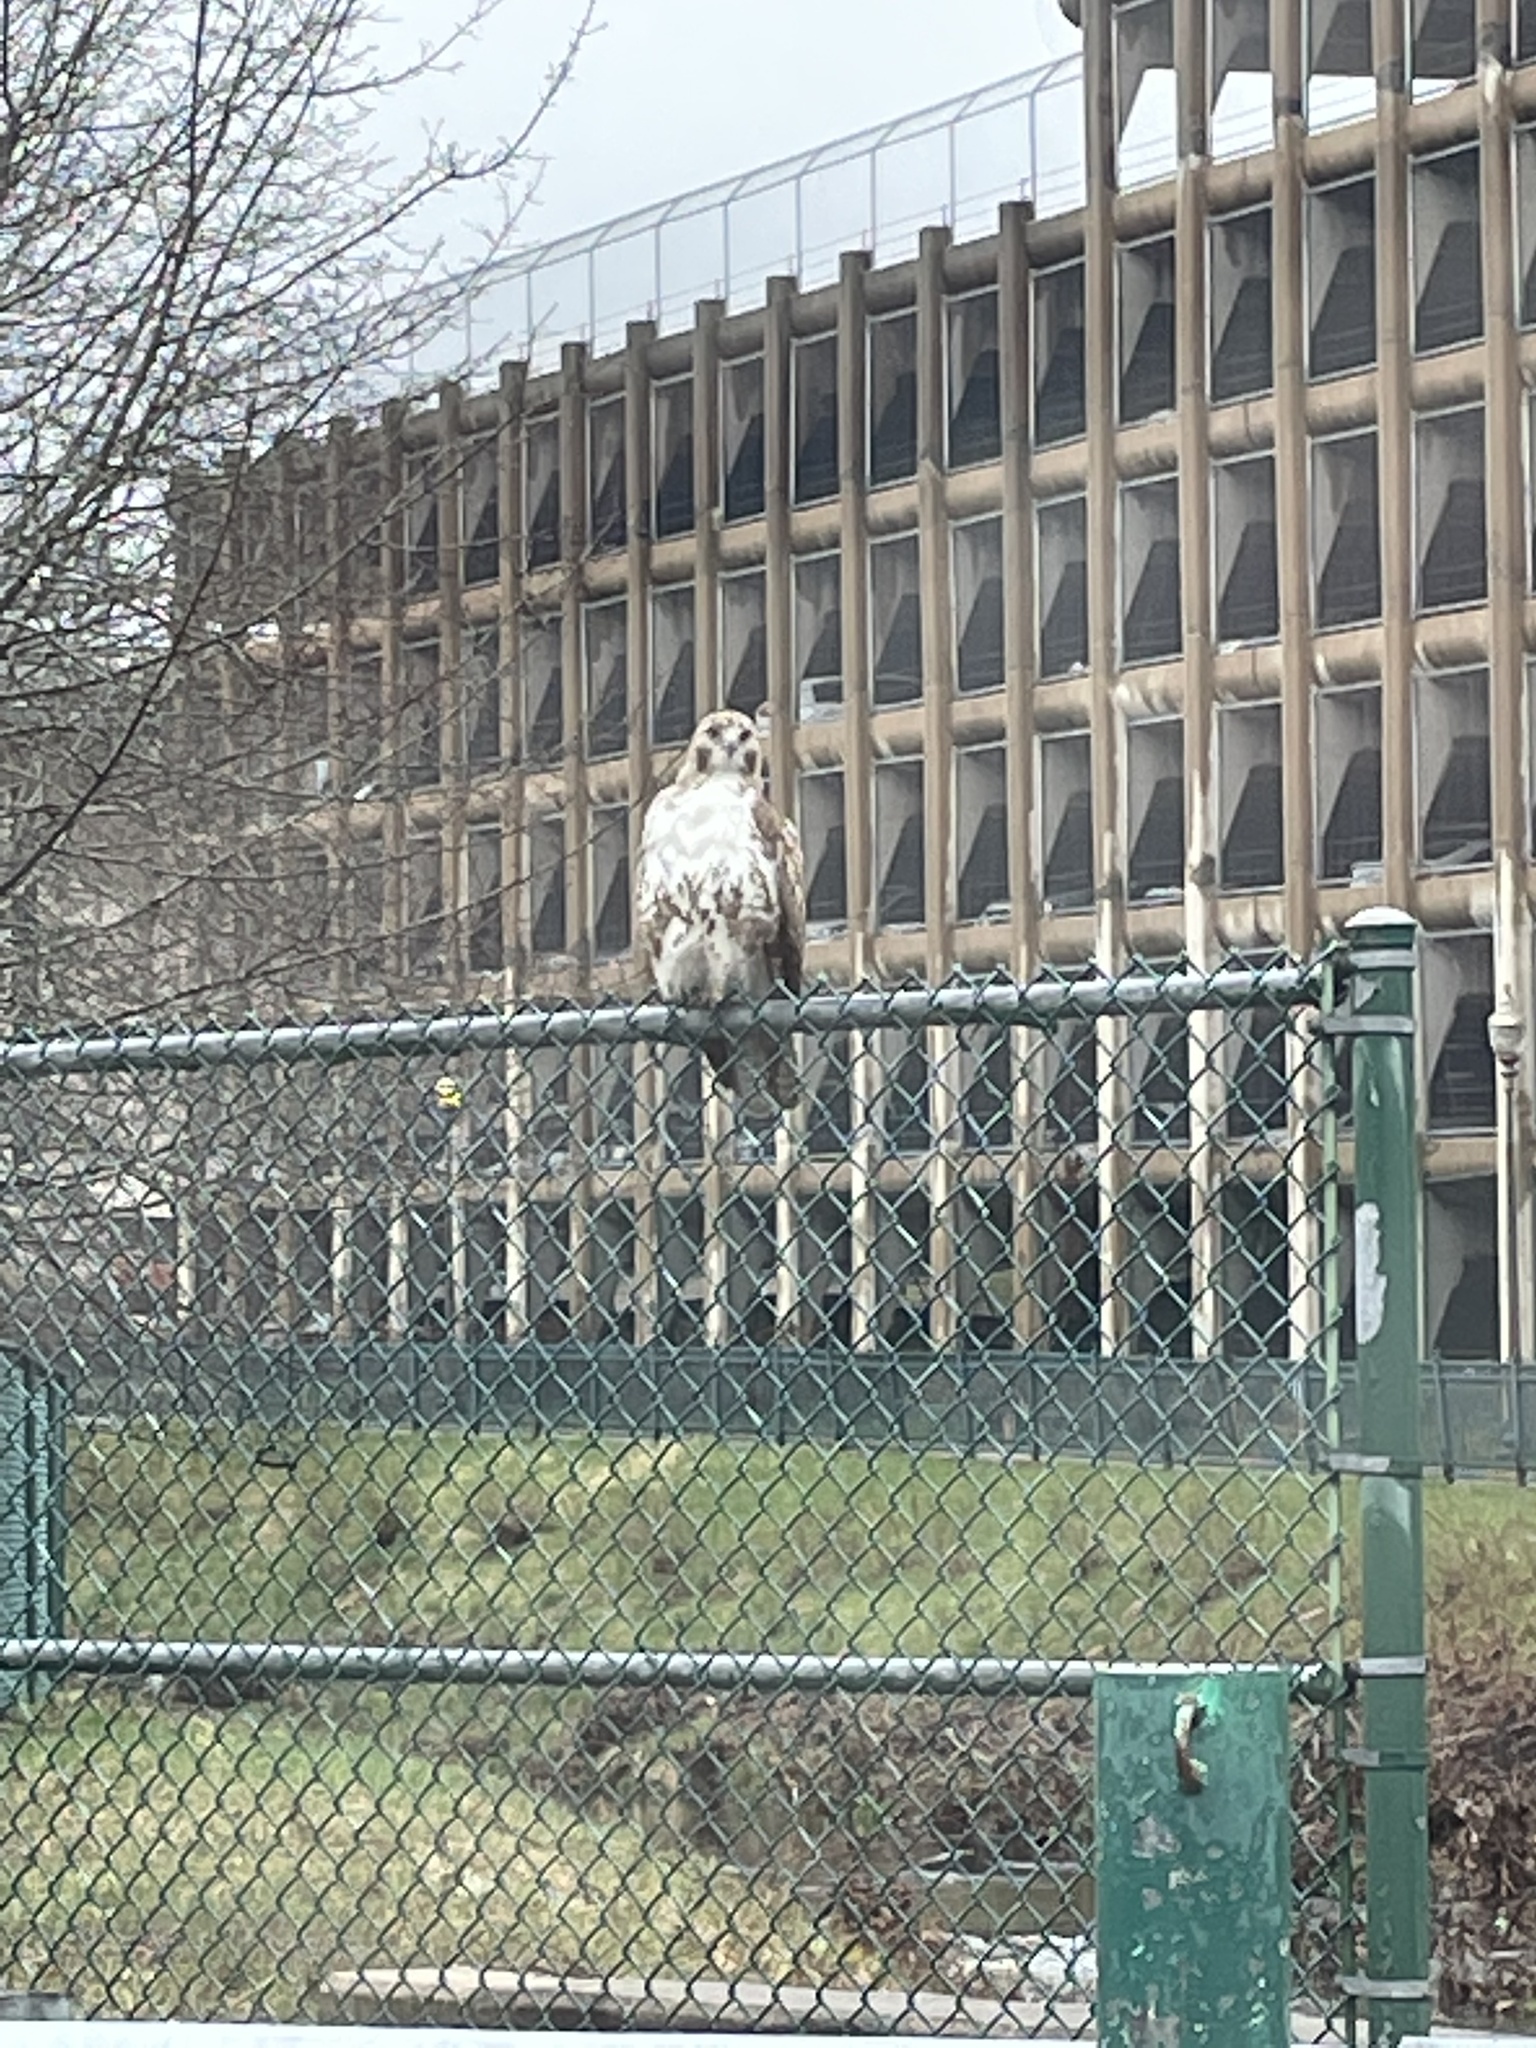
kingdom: Animalia
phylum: Chordata
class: Aves
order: Accipitriformes
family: Accipitridae
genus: Buteo
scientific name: Buteo jamaicensis
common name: Red-tailed hawk
